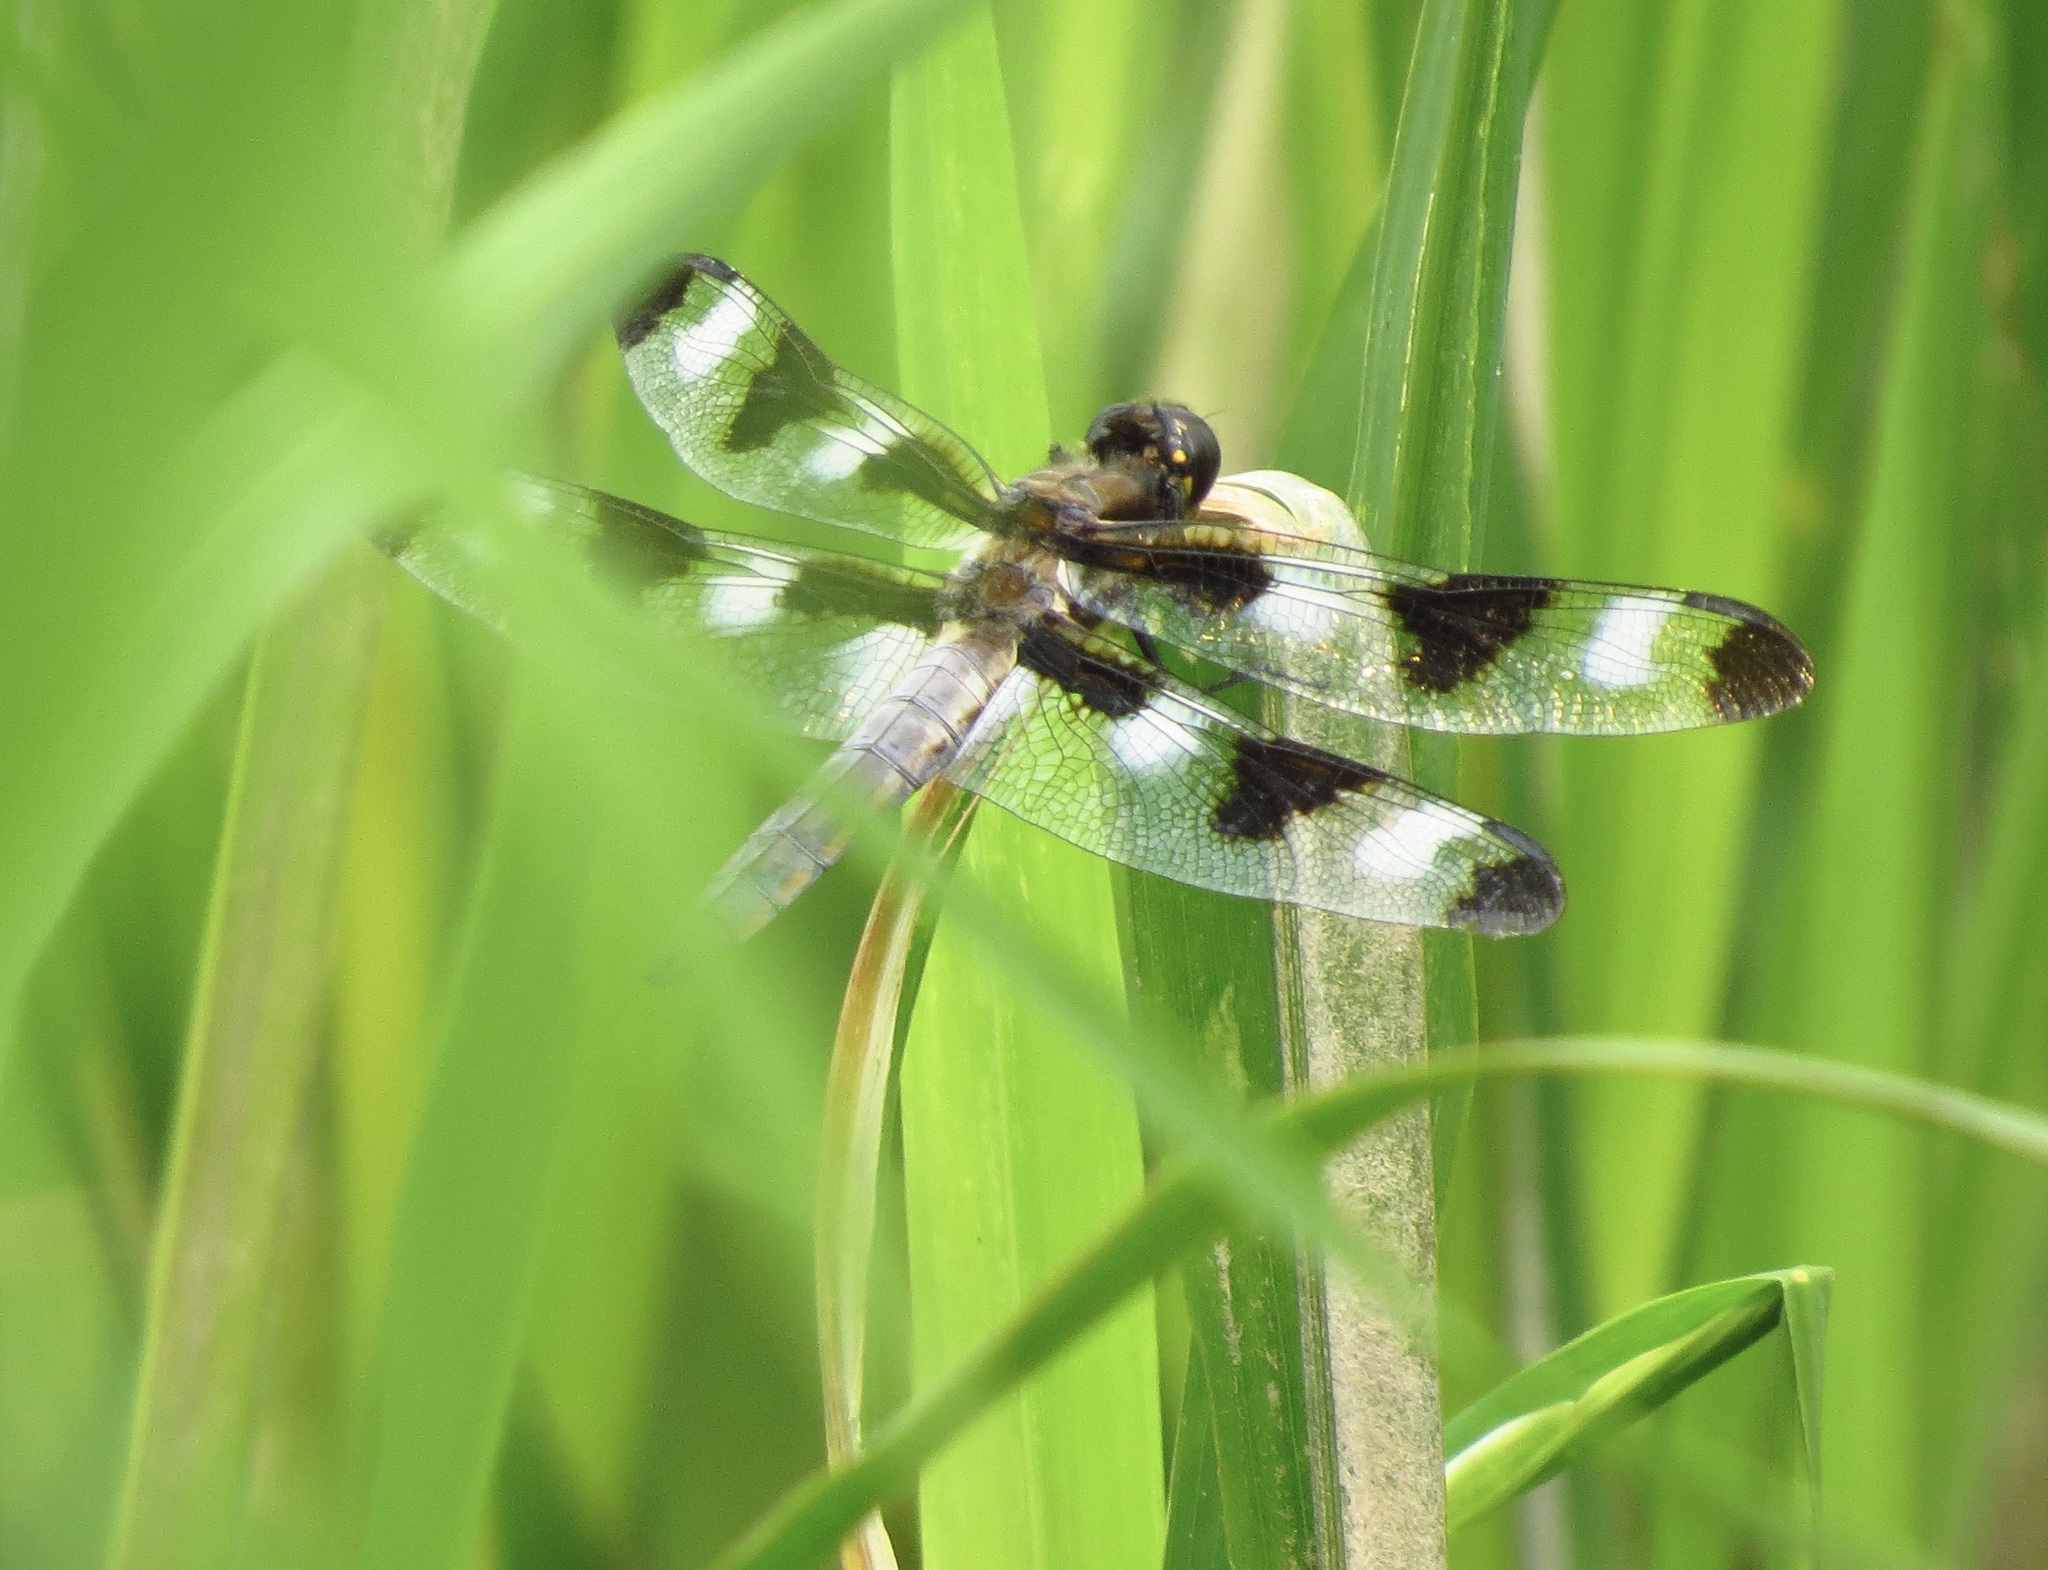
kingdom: Animalia
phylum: Arthropoda
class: Insecta
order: Odonata
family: Libellulidae
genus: Libellula
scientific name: Libellula pulchella
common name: Twelve-spotted skimmer
